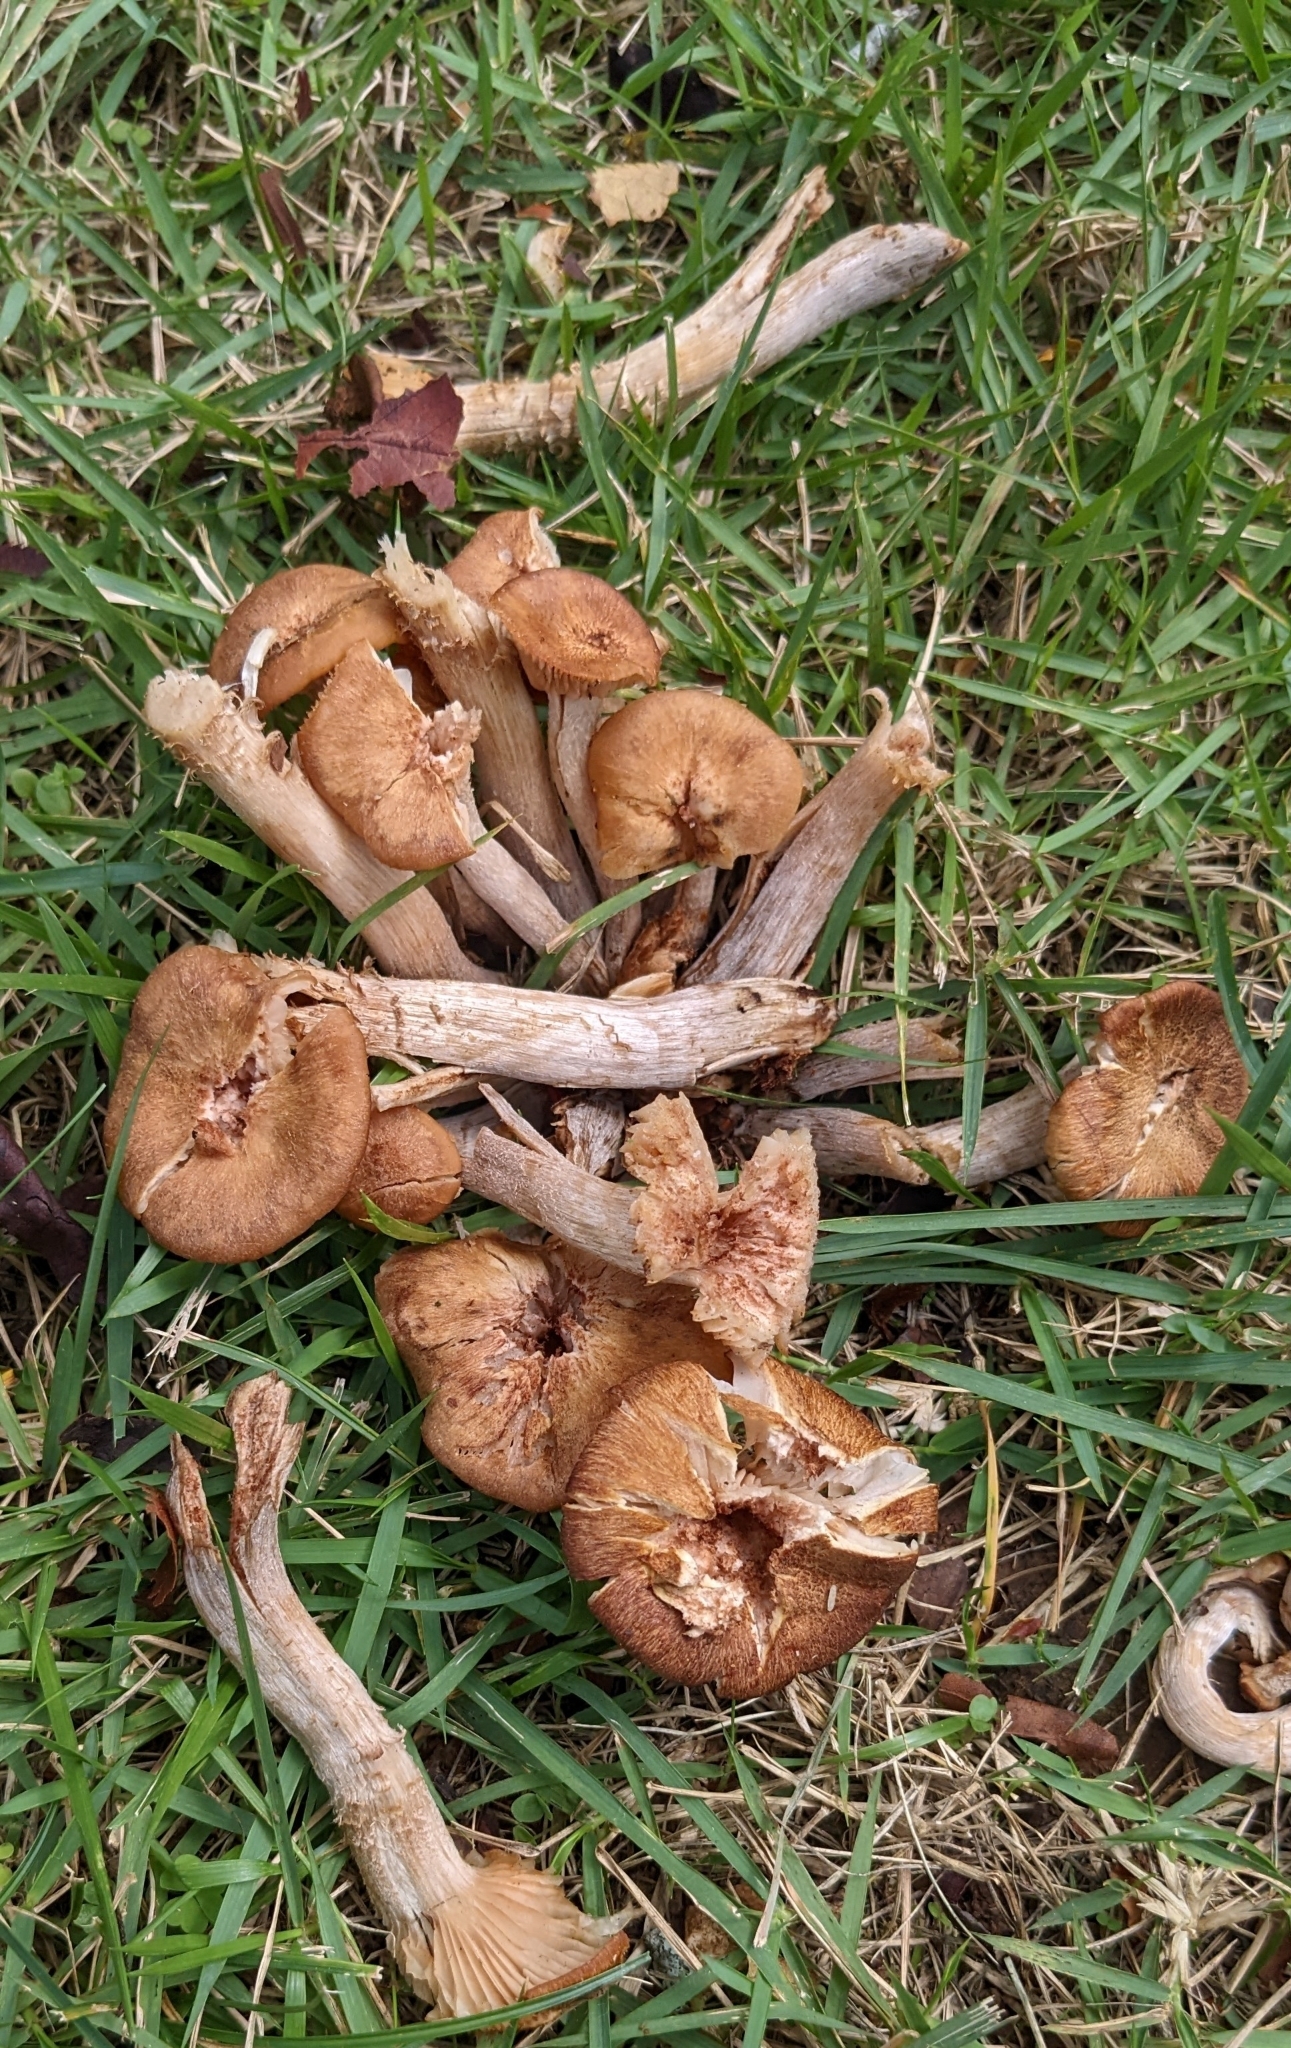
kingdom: Fungi
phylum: Basidiomycota
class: Agaricomycetes
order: Agaricales
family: Physalacriaceae
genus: Desarmillaria
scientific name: Desarmillaria caespitosa
